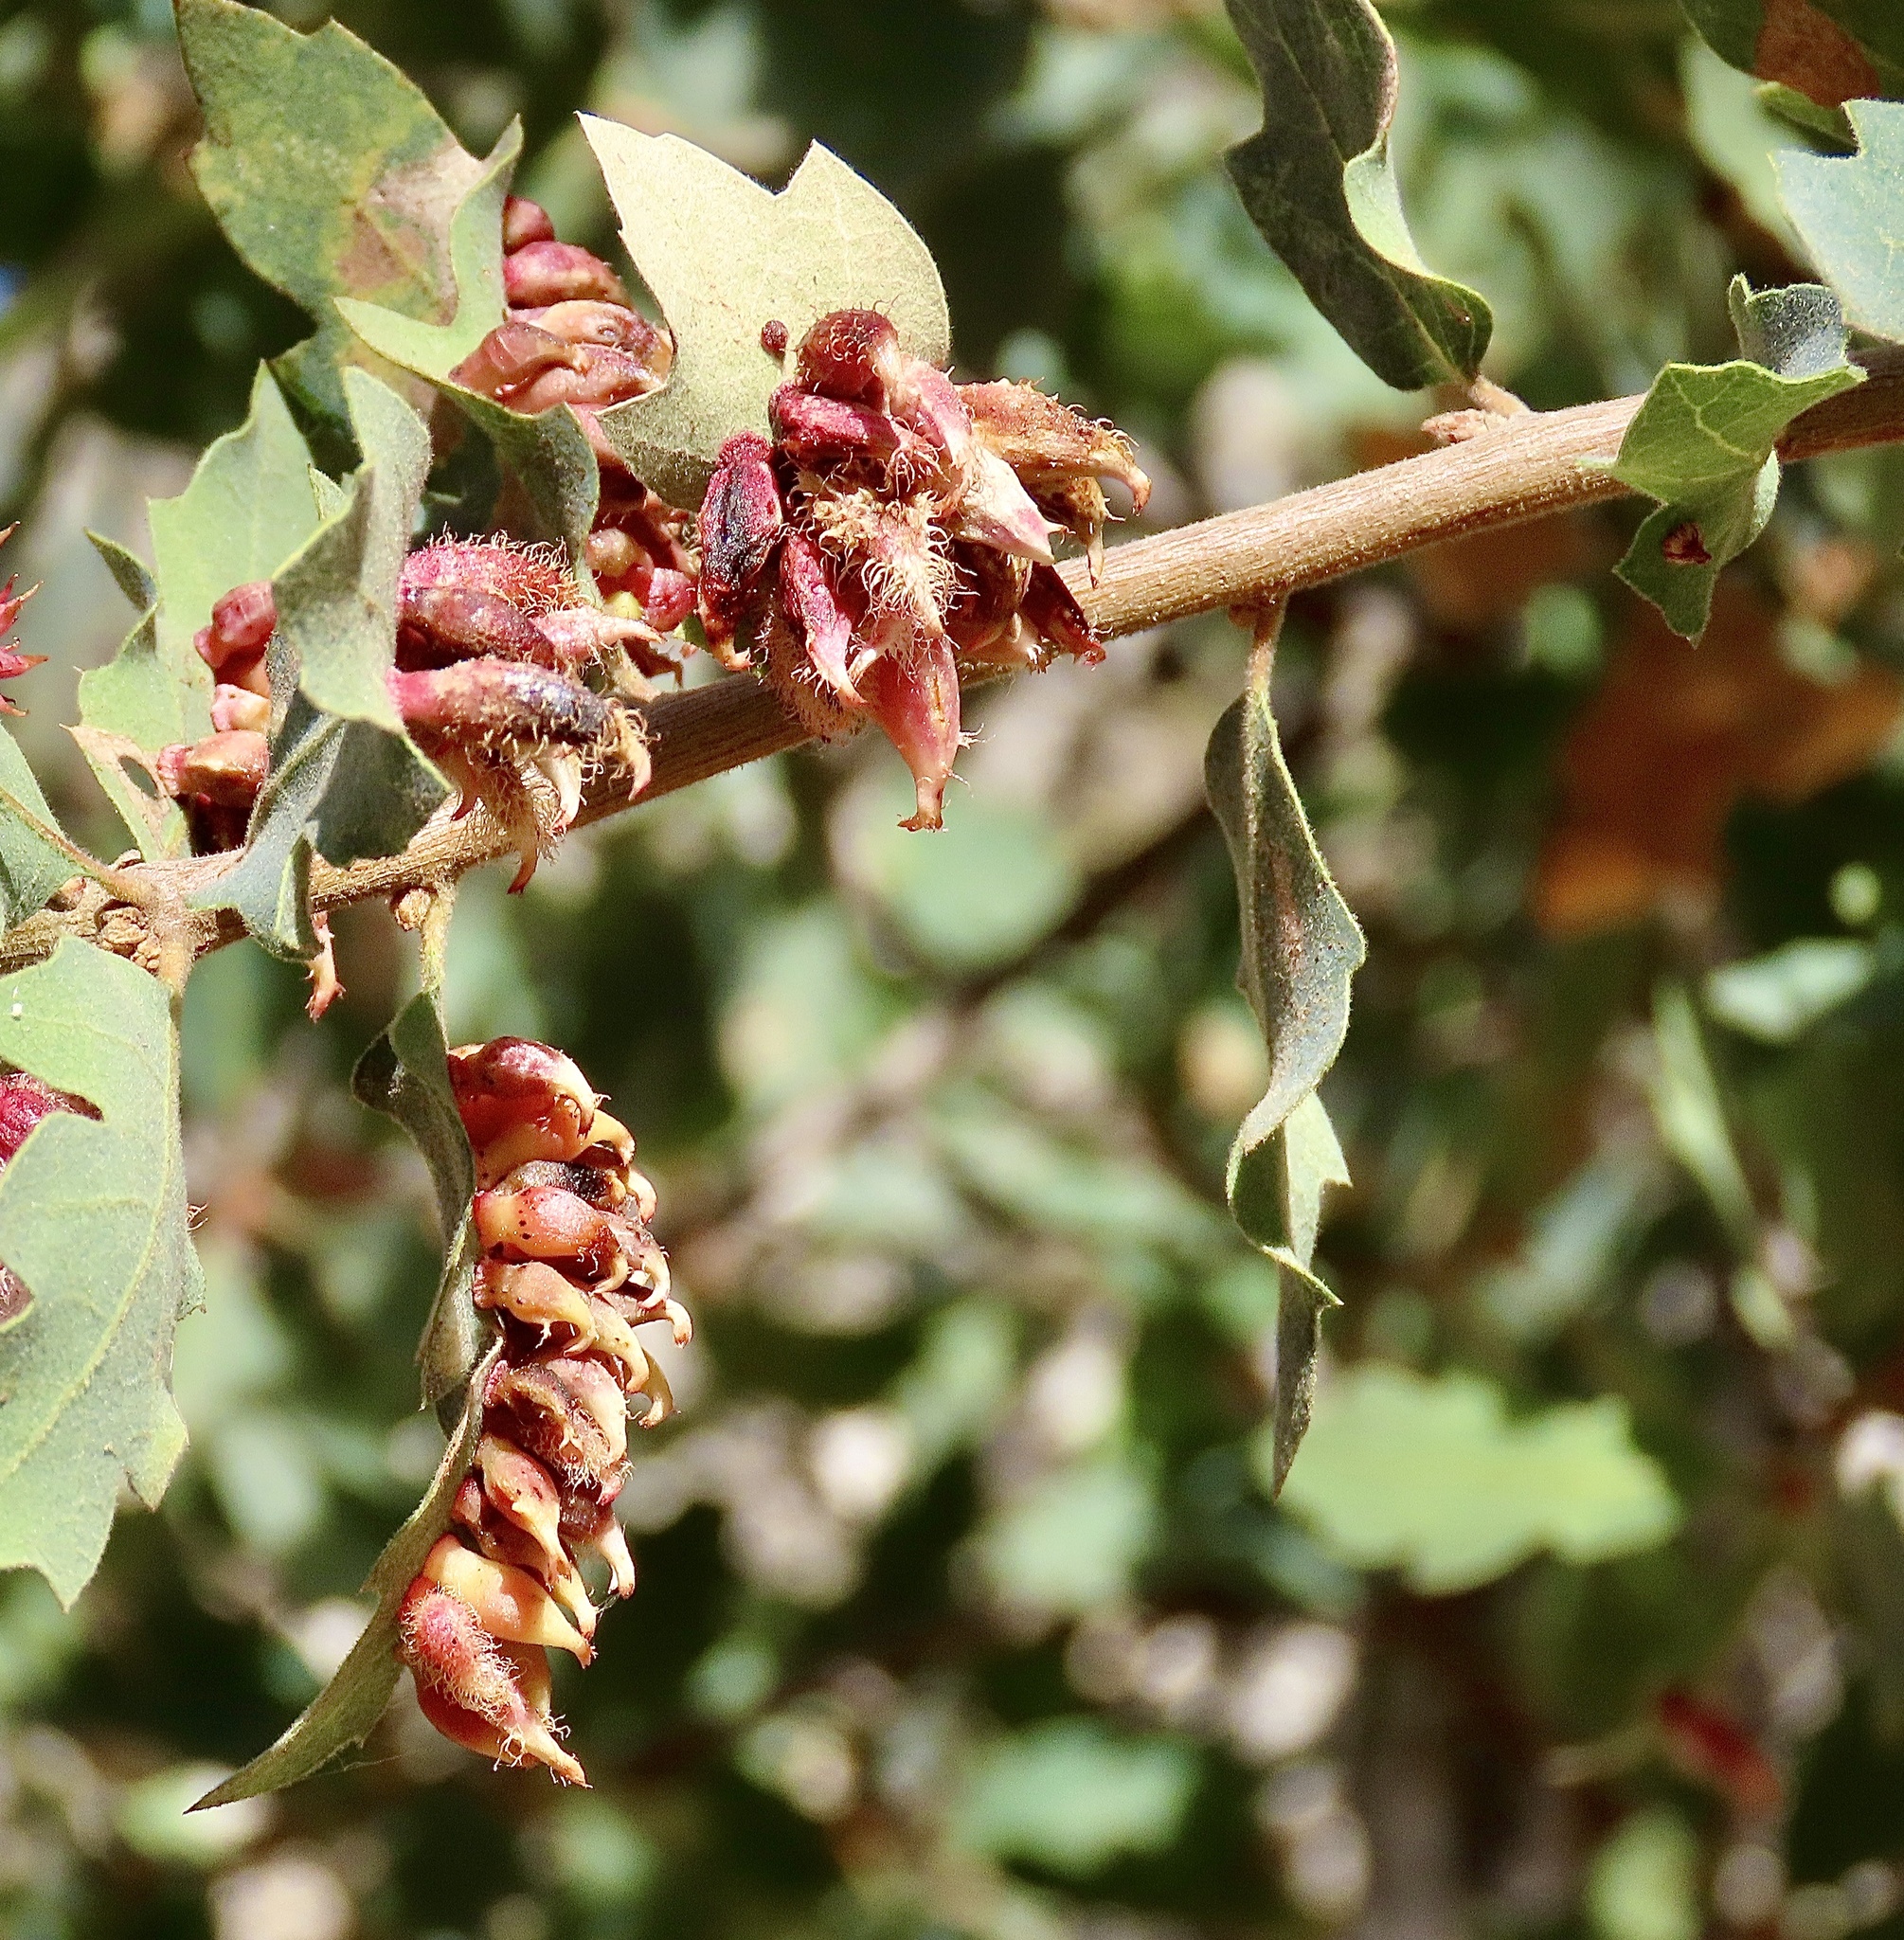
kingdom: Animalia
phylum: Arthropoda
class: Insecta
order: Hymenoptera
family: Cynipidae
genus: Andricus
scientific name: Andricus
